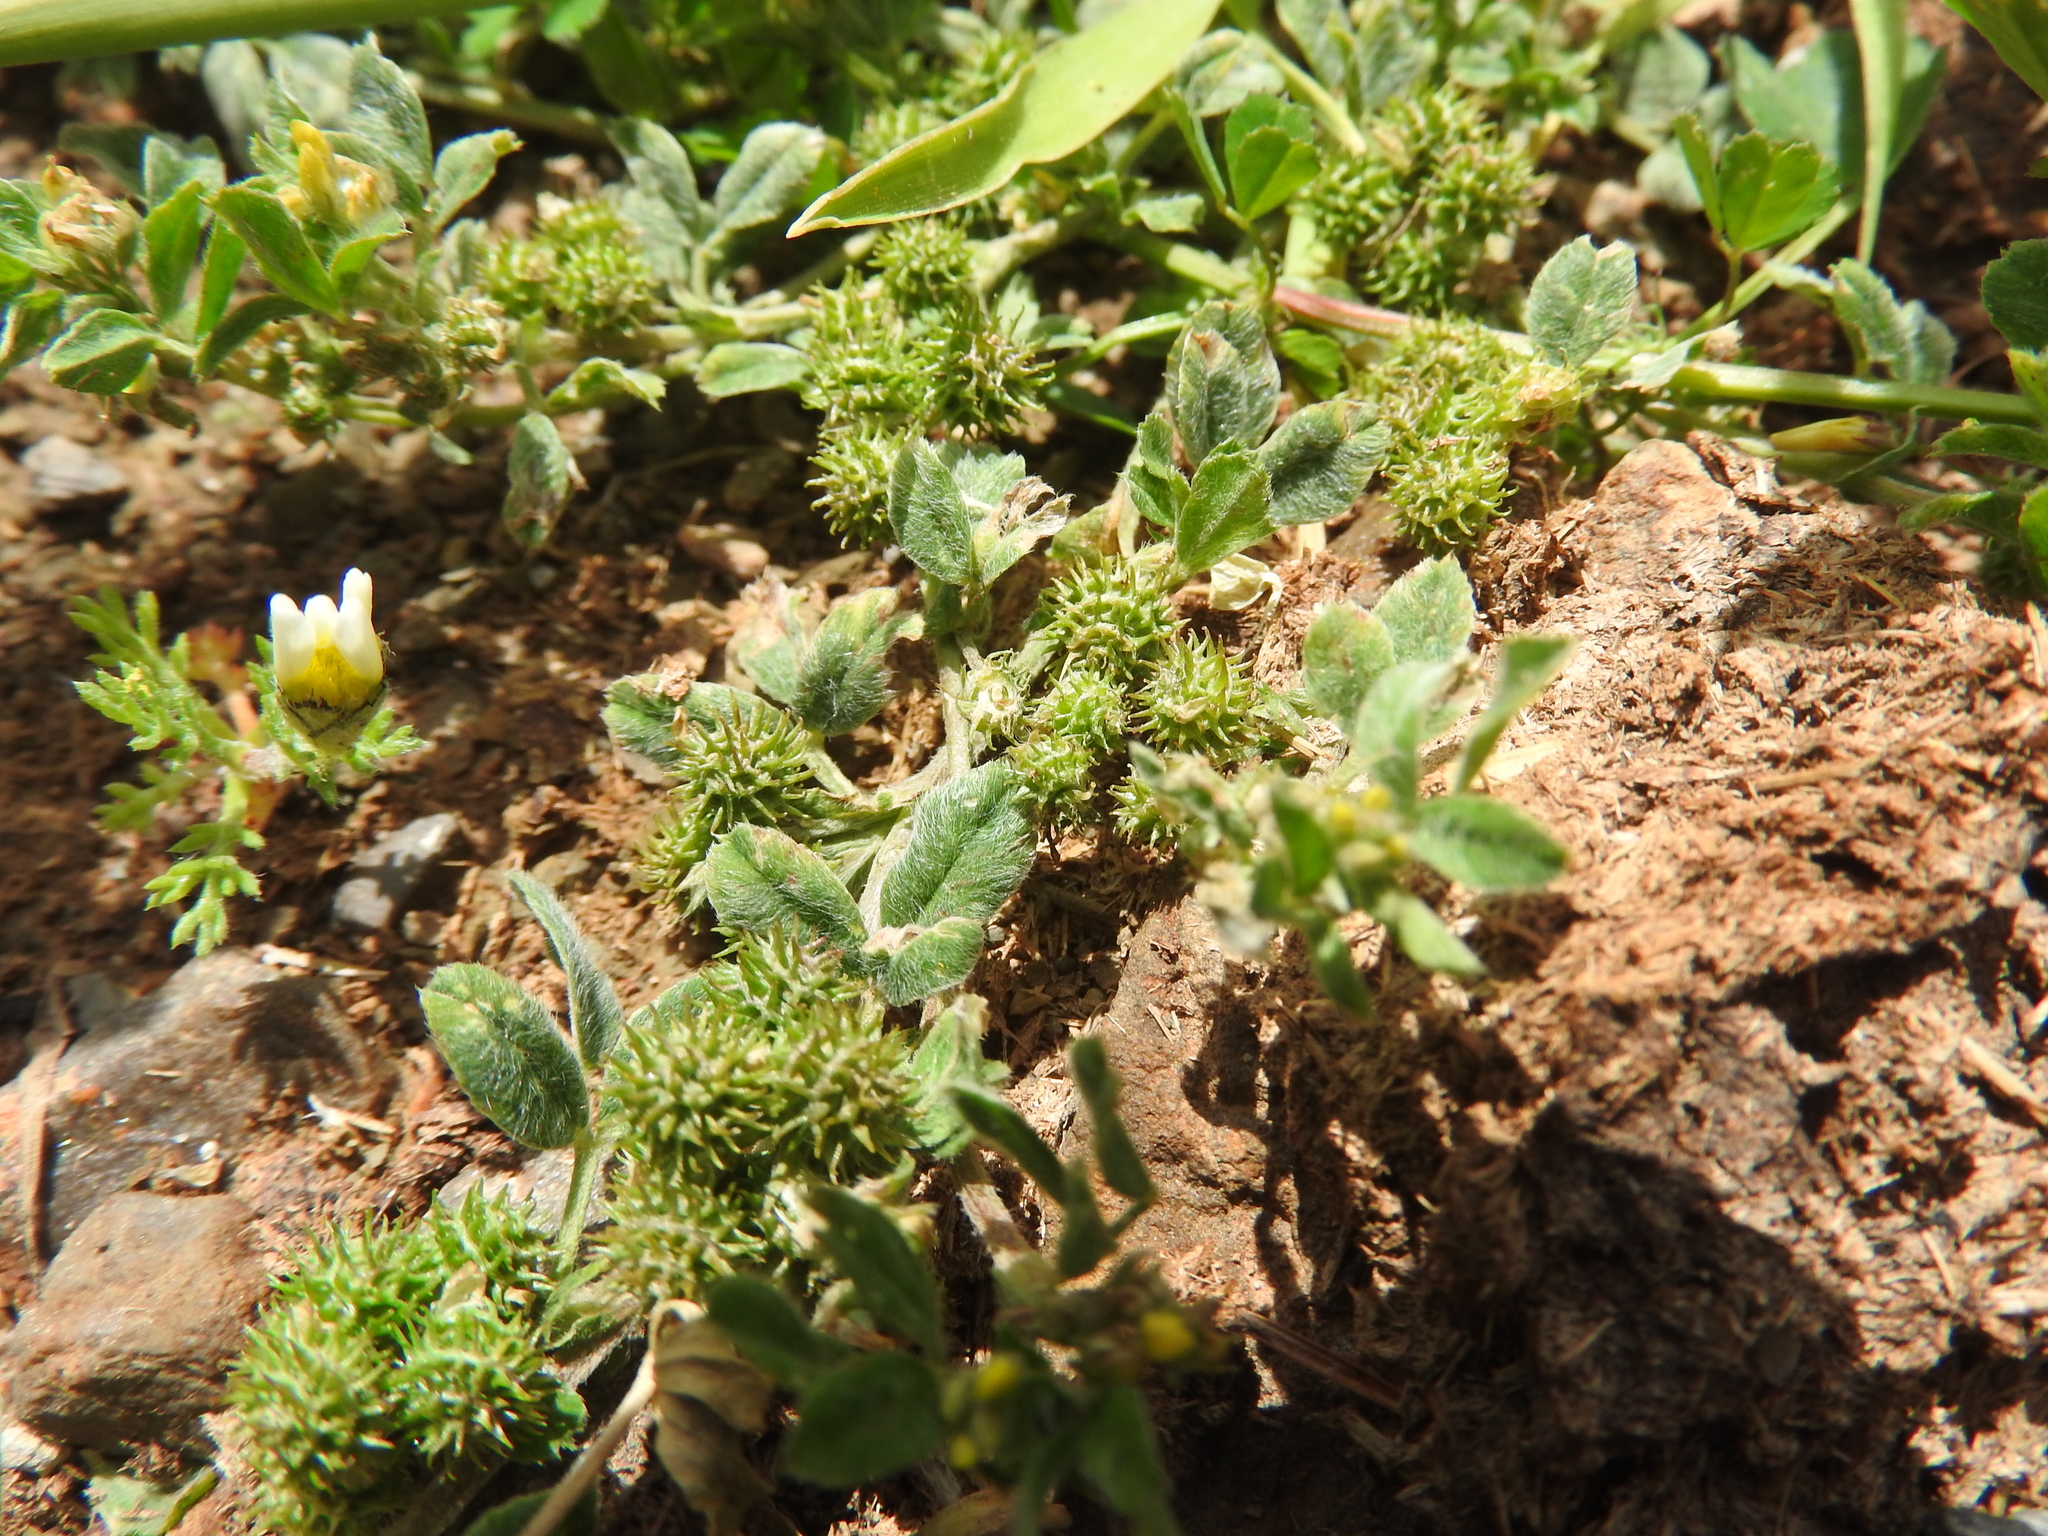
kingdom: Plantae
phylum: Tracheophyta
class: Magnoliopsida
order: Fabales
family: Fabaceae
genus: Medicago
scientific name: Medicago minima
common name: Little bur-clover
